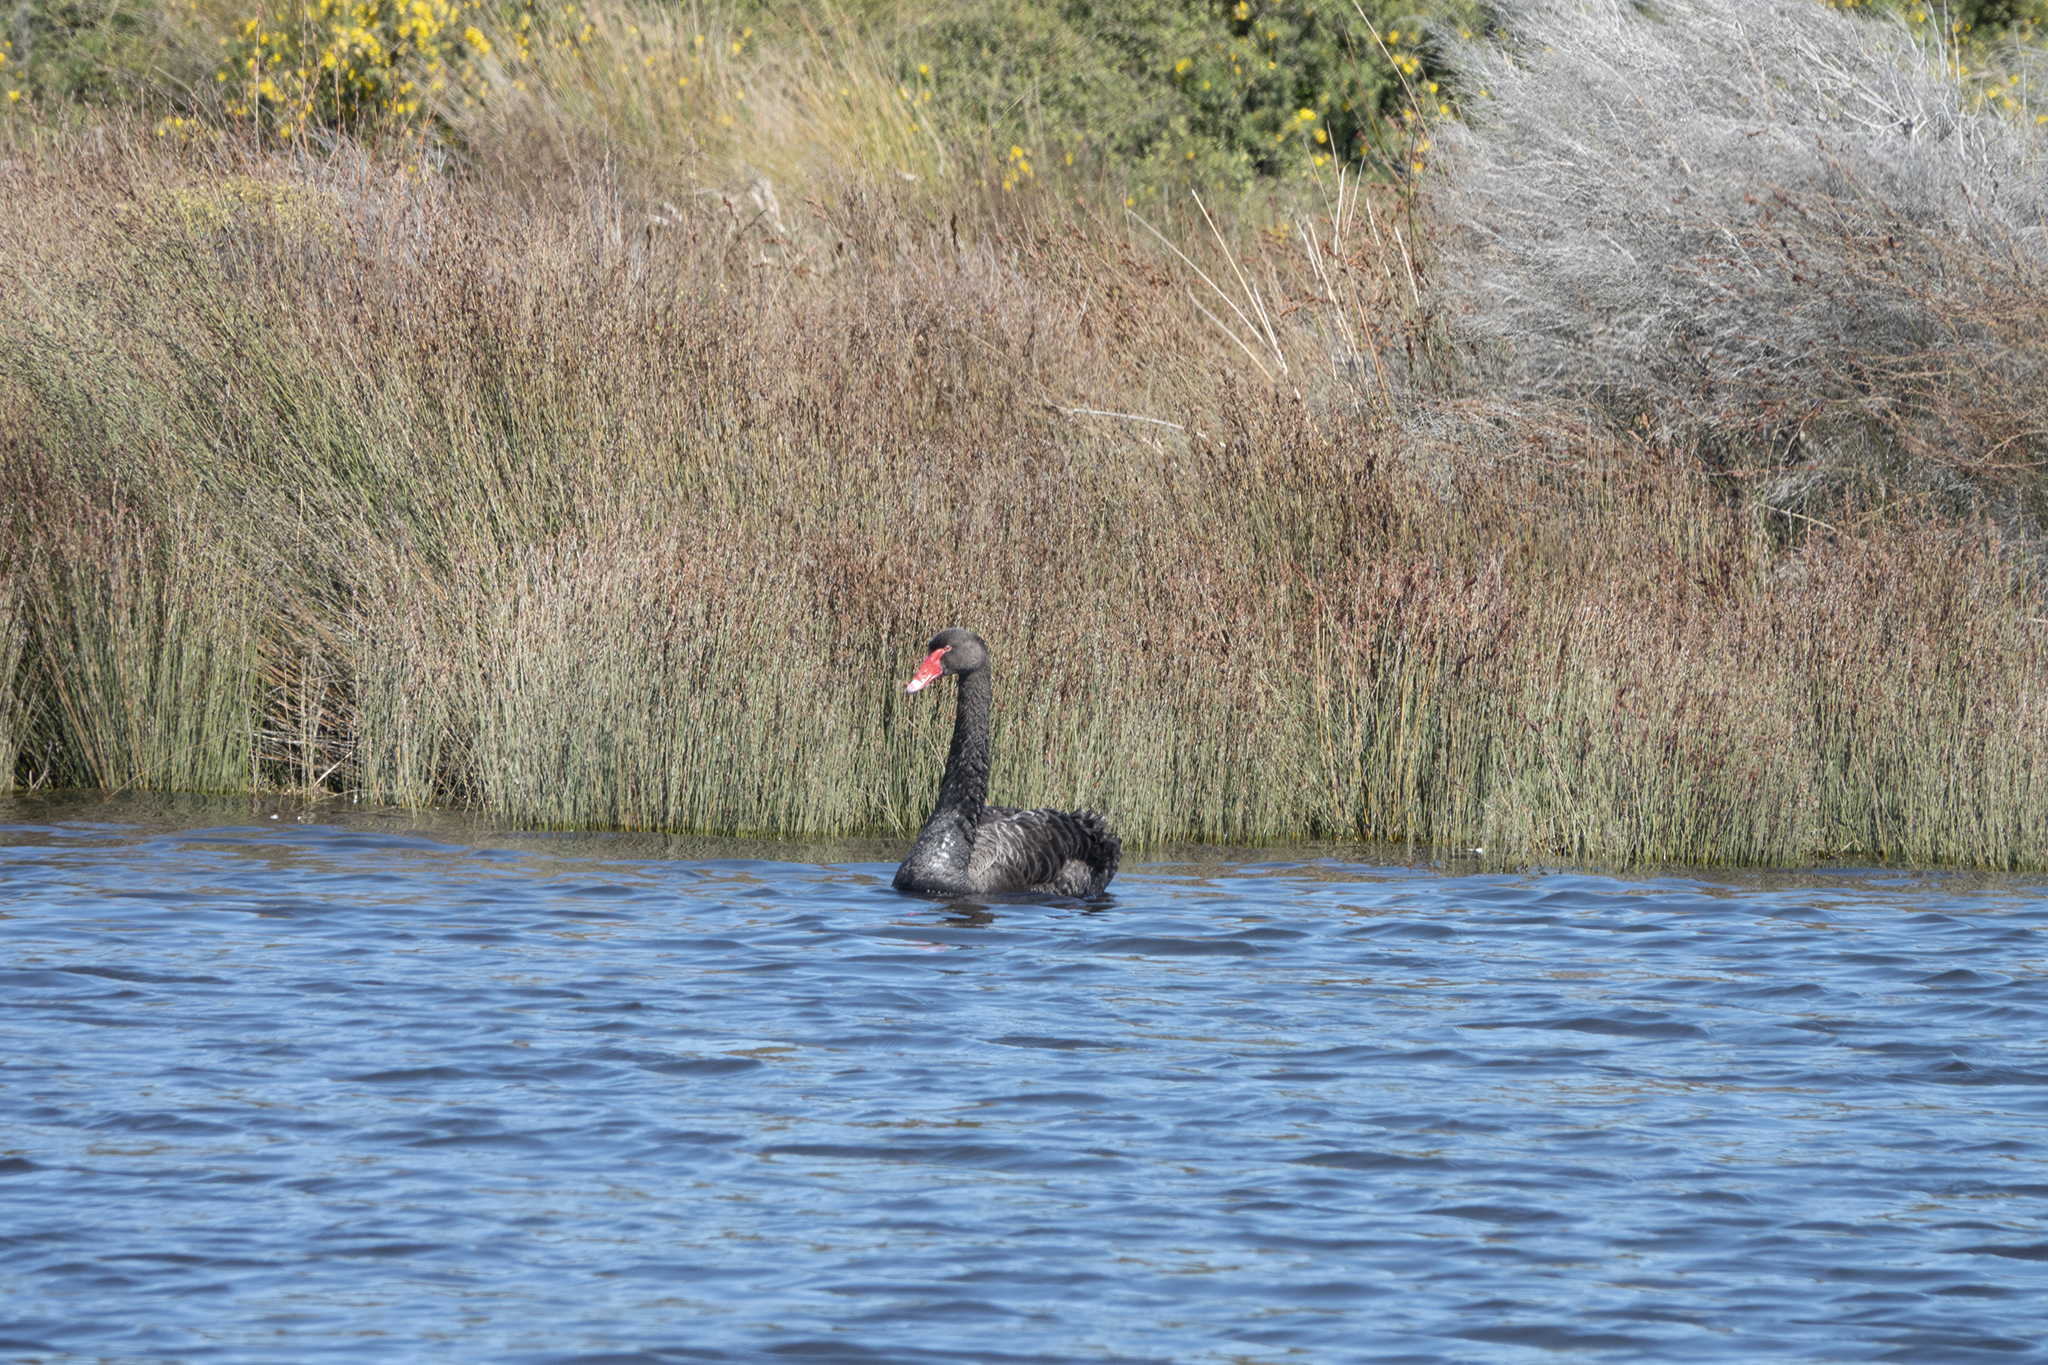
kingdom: Animalia
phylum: Chordata
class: Aves
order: Anseriformes
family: Anatidae
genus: Cygnus
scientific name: Cygnus atratus
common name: Black swan
